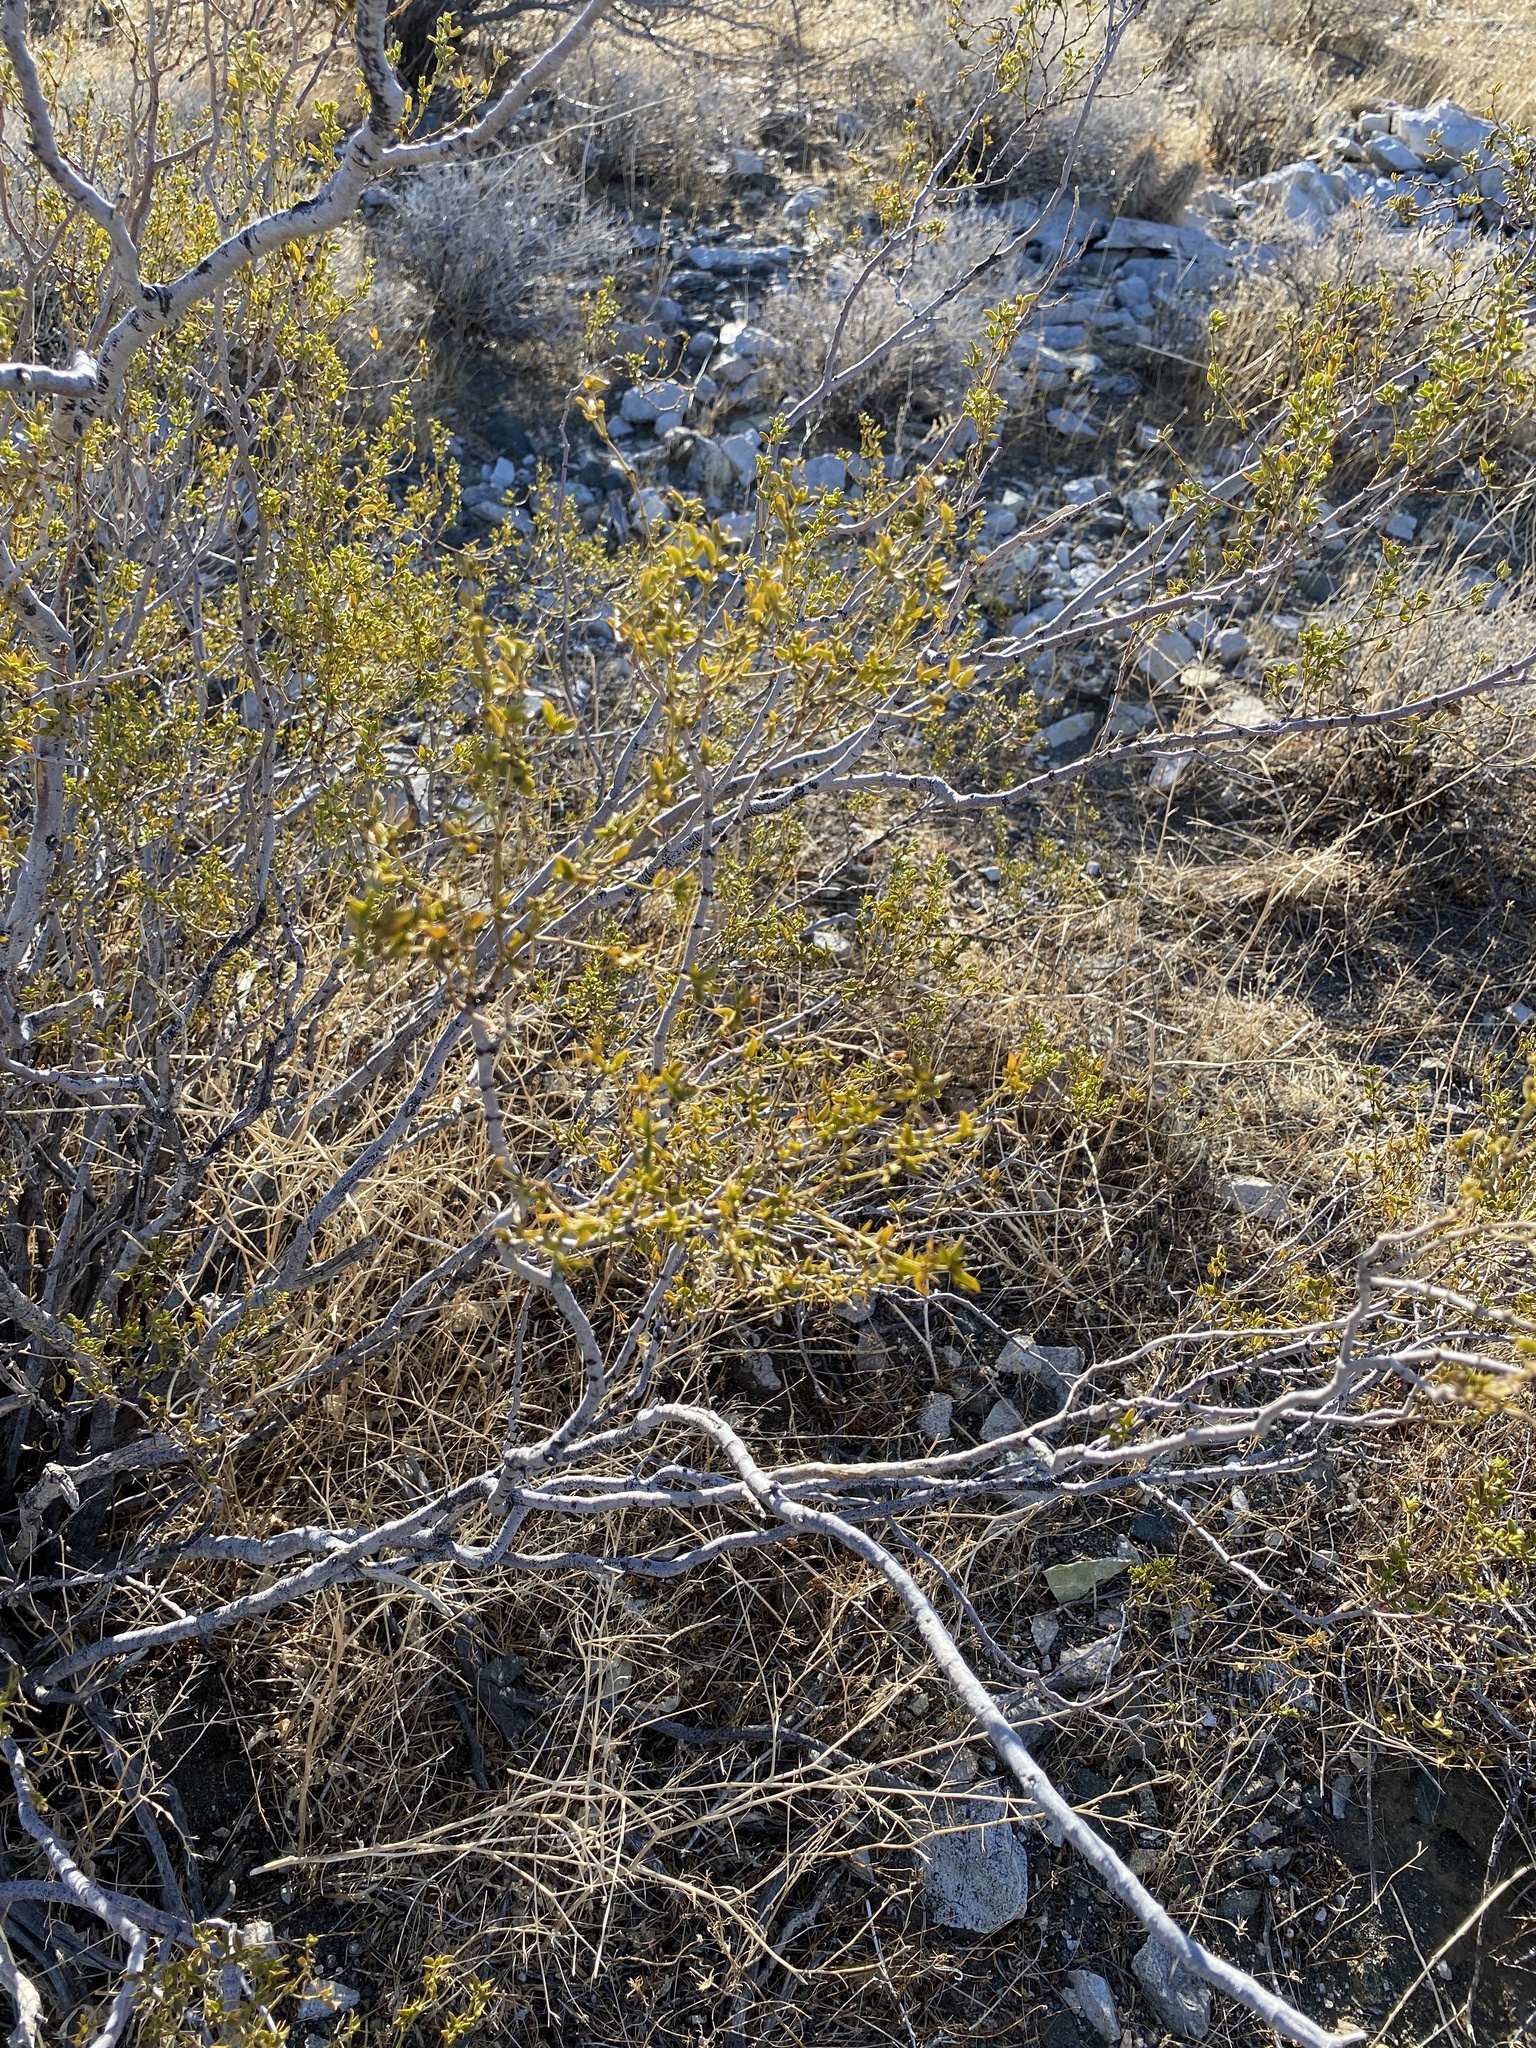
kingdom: Plantae
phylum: Tracheophyta
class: Magnoliopsida
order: Zygophyllales
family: Zygophyllaceae
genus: Larrea
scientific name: Larrea tridentata
